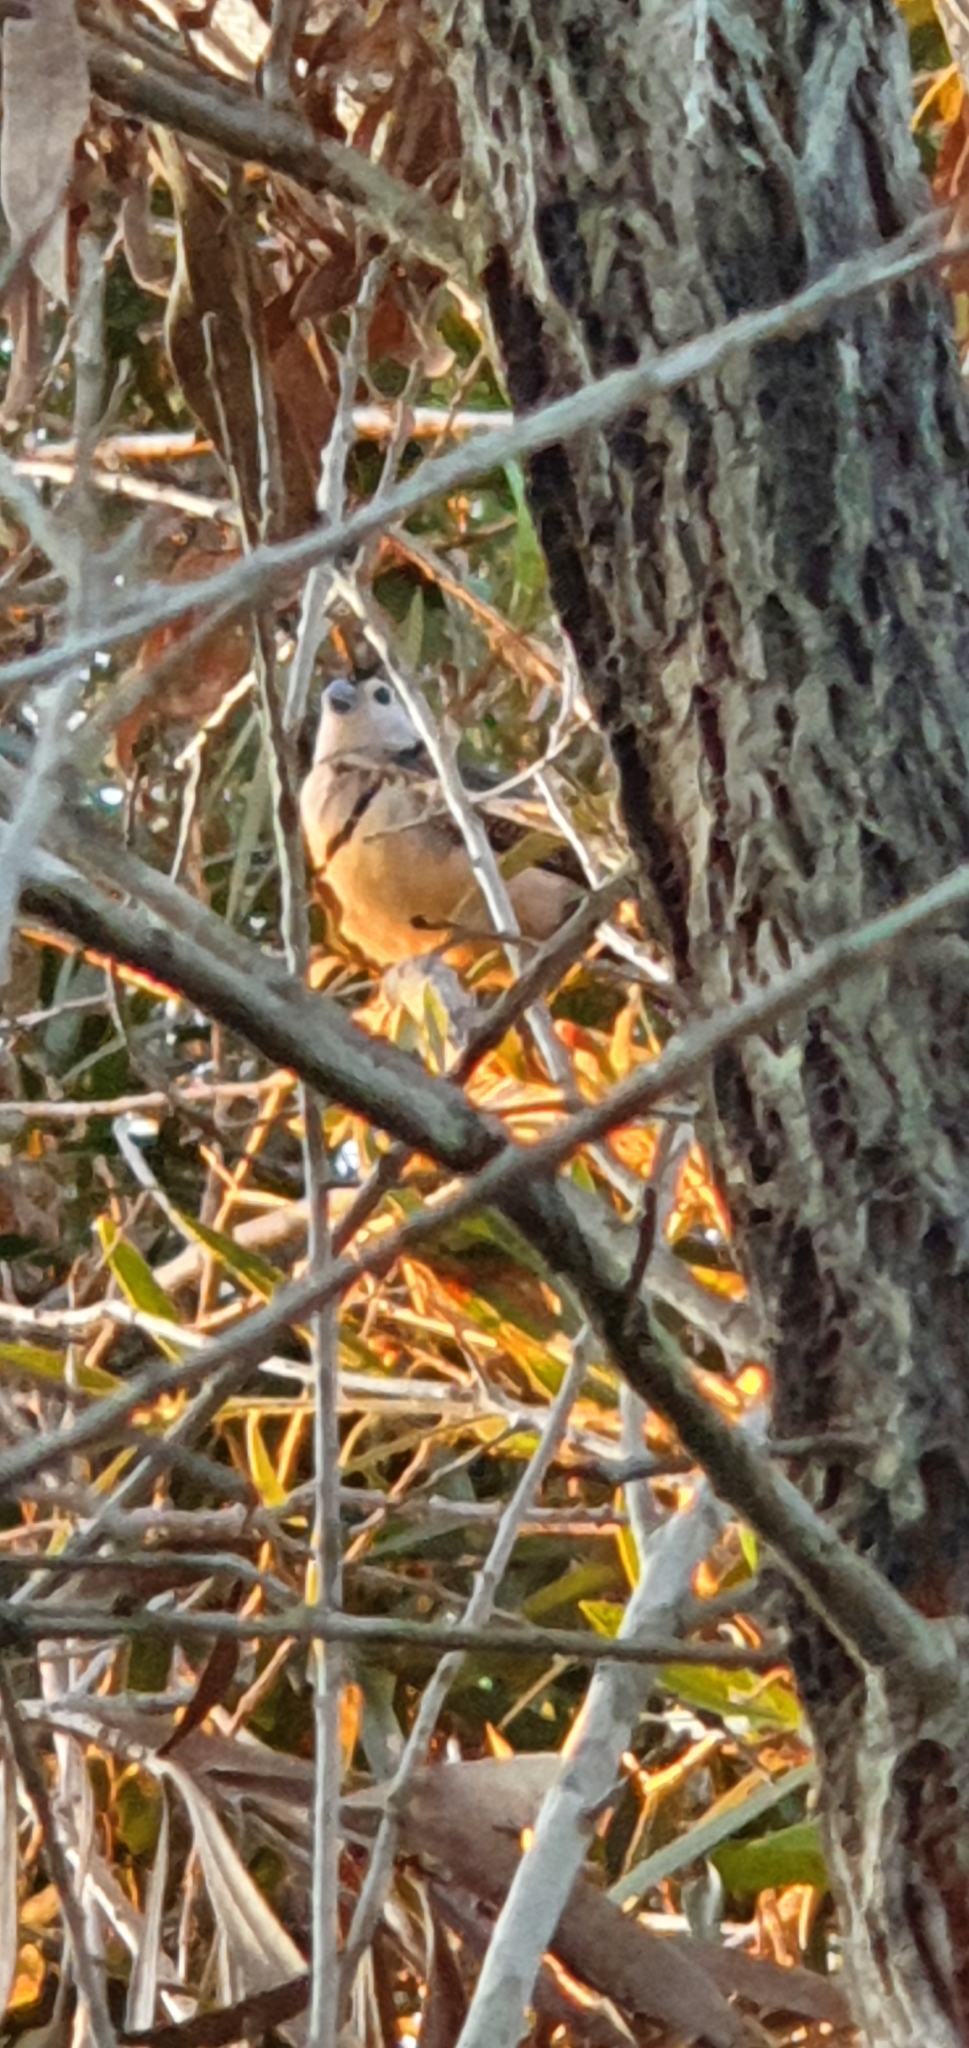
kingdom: Animalia
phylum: Chordata
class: Aves
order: Passeriformes
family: Estrildidae
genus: Taeniopygia
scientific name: Taeniopygia bichenovii
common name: Double-barred finch
